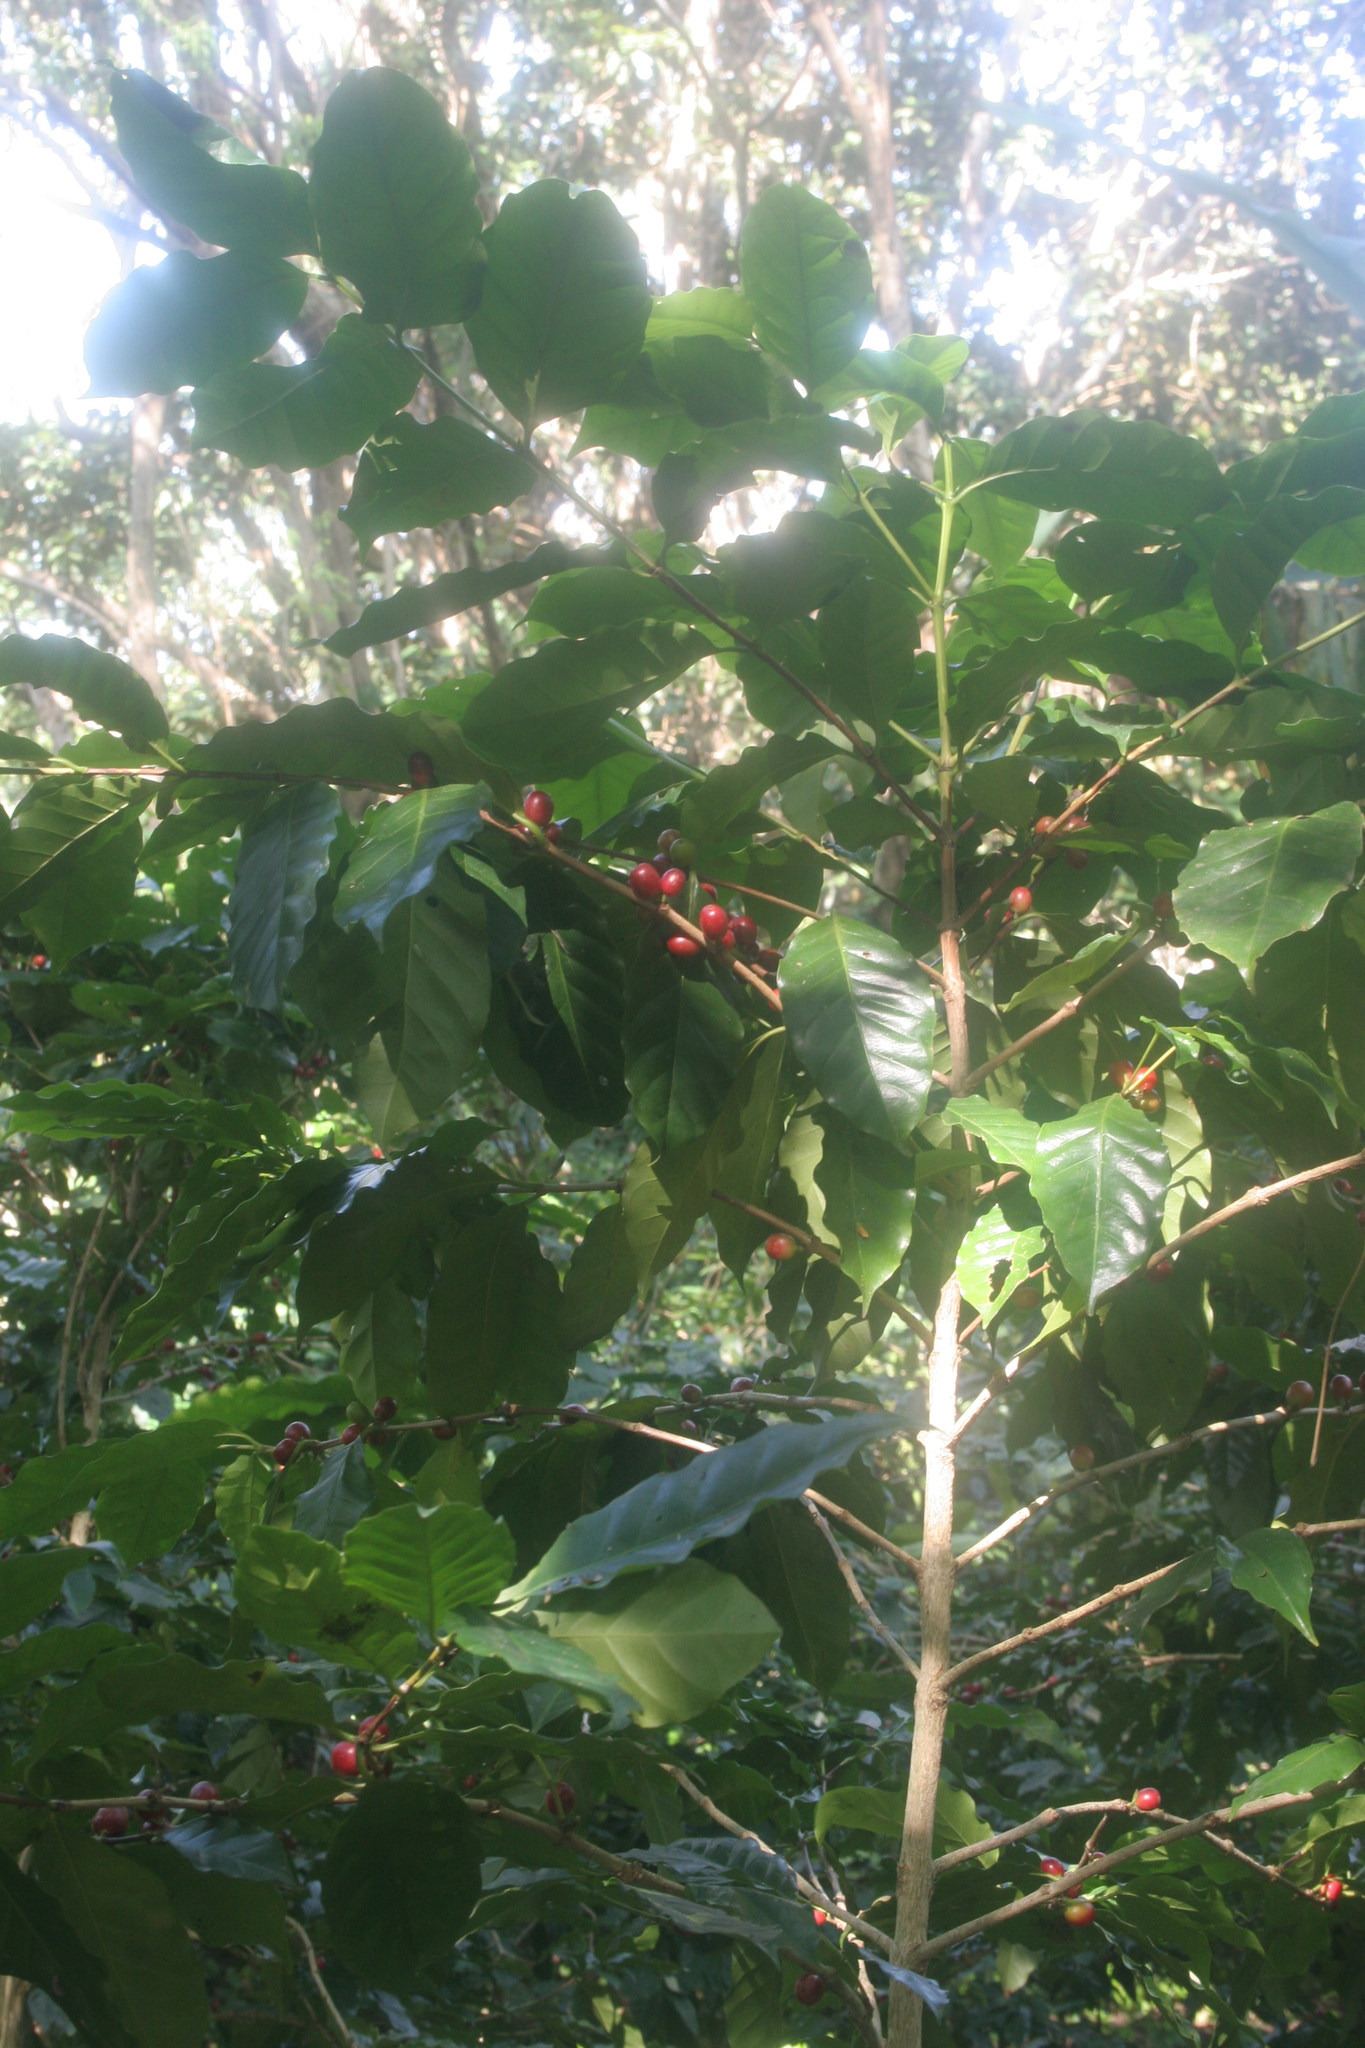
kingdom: Plantae
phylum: Tracheophyta
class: Magnoliopsida
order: Gentianales
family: Rubiaceae
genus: Coffea
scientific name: Coffea arabica
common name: Coffee
